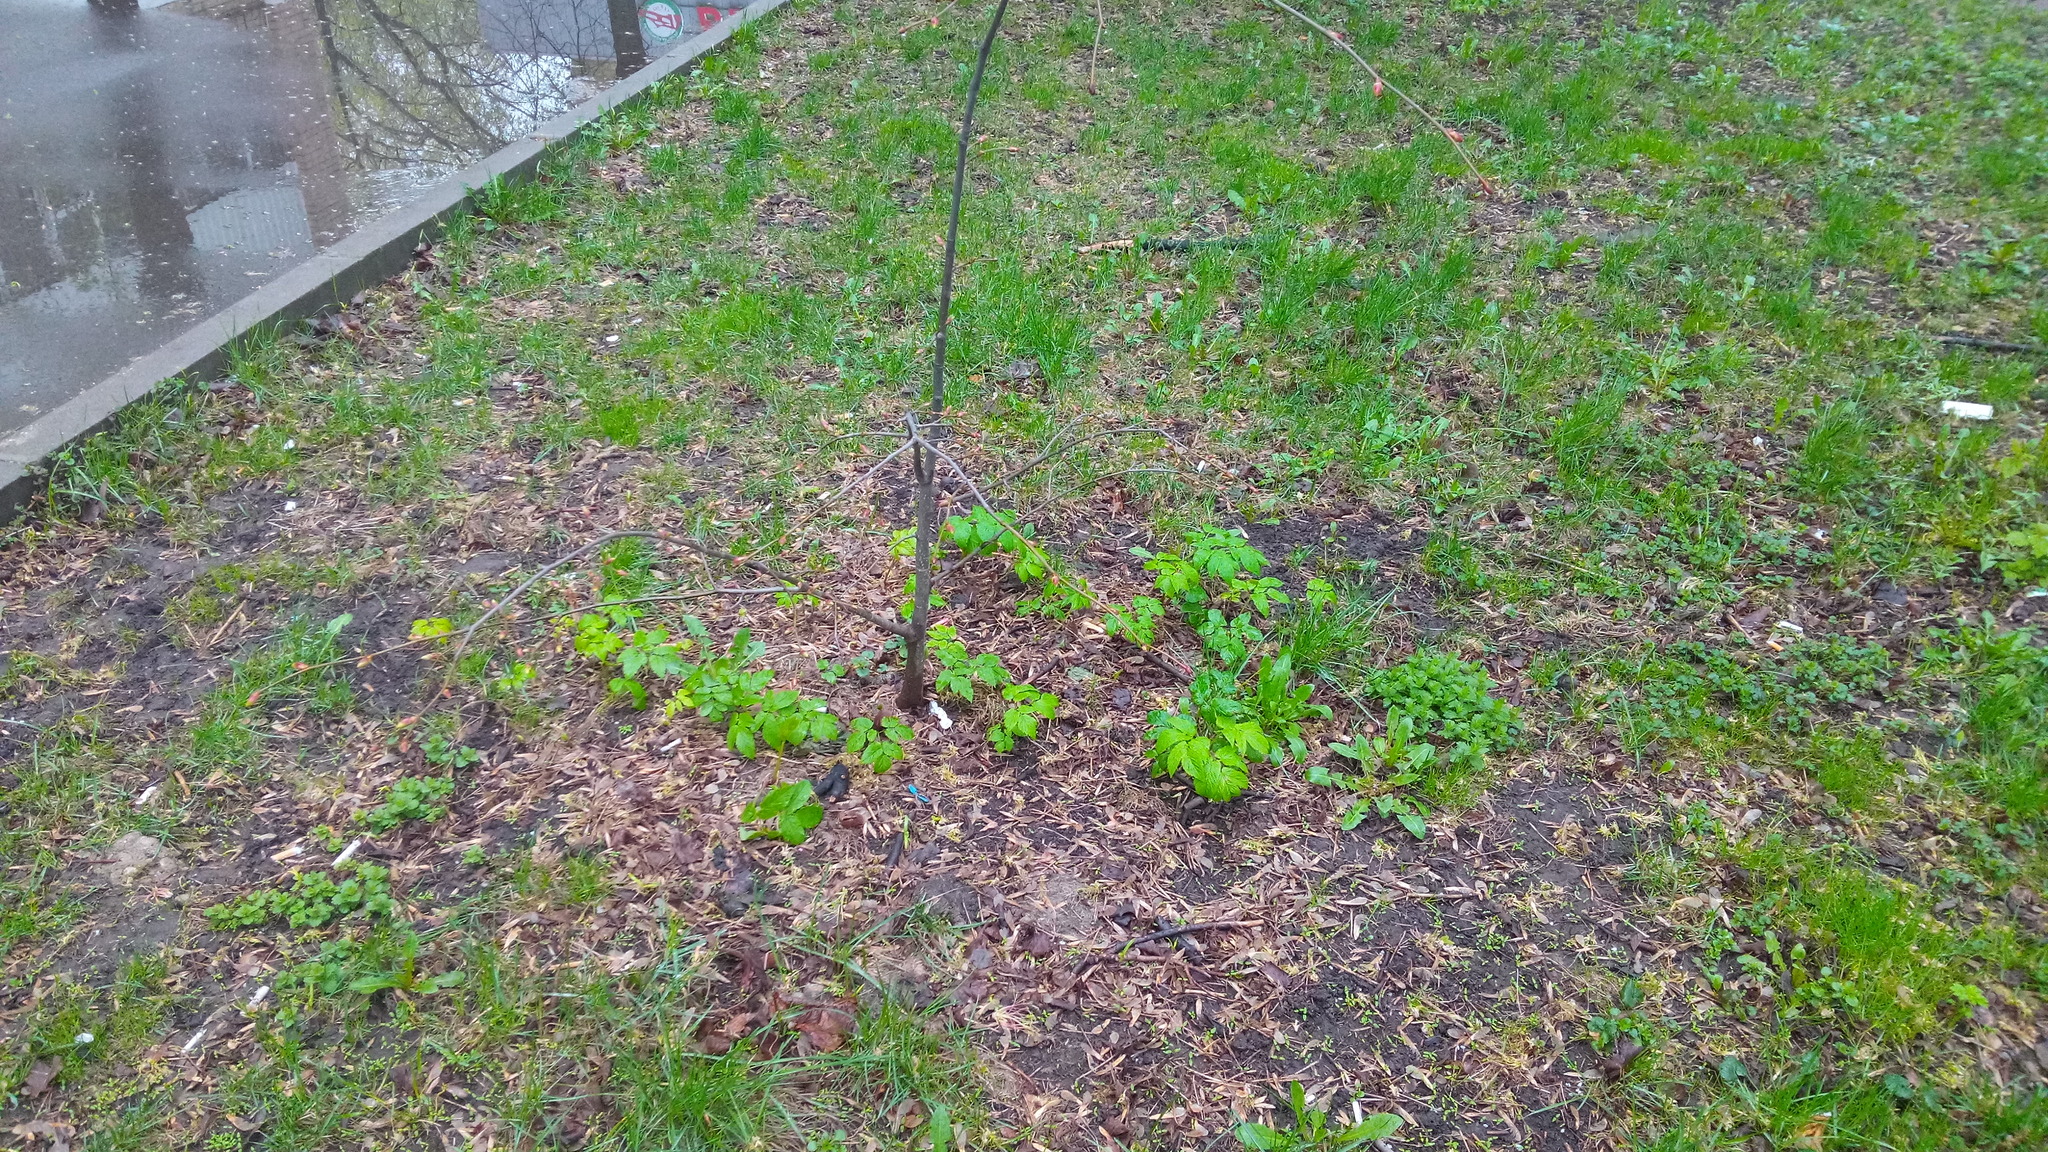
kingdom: Plantae
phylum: Tracheophyta
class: Magnoliopsida
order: Apiales
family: Apiaceae
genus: Aegopodium
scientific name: Aegopodium podagraria
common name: Ground-elder
